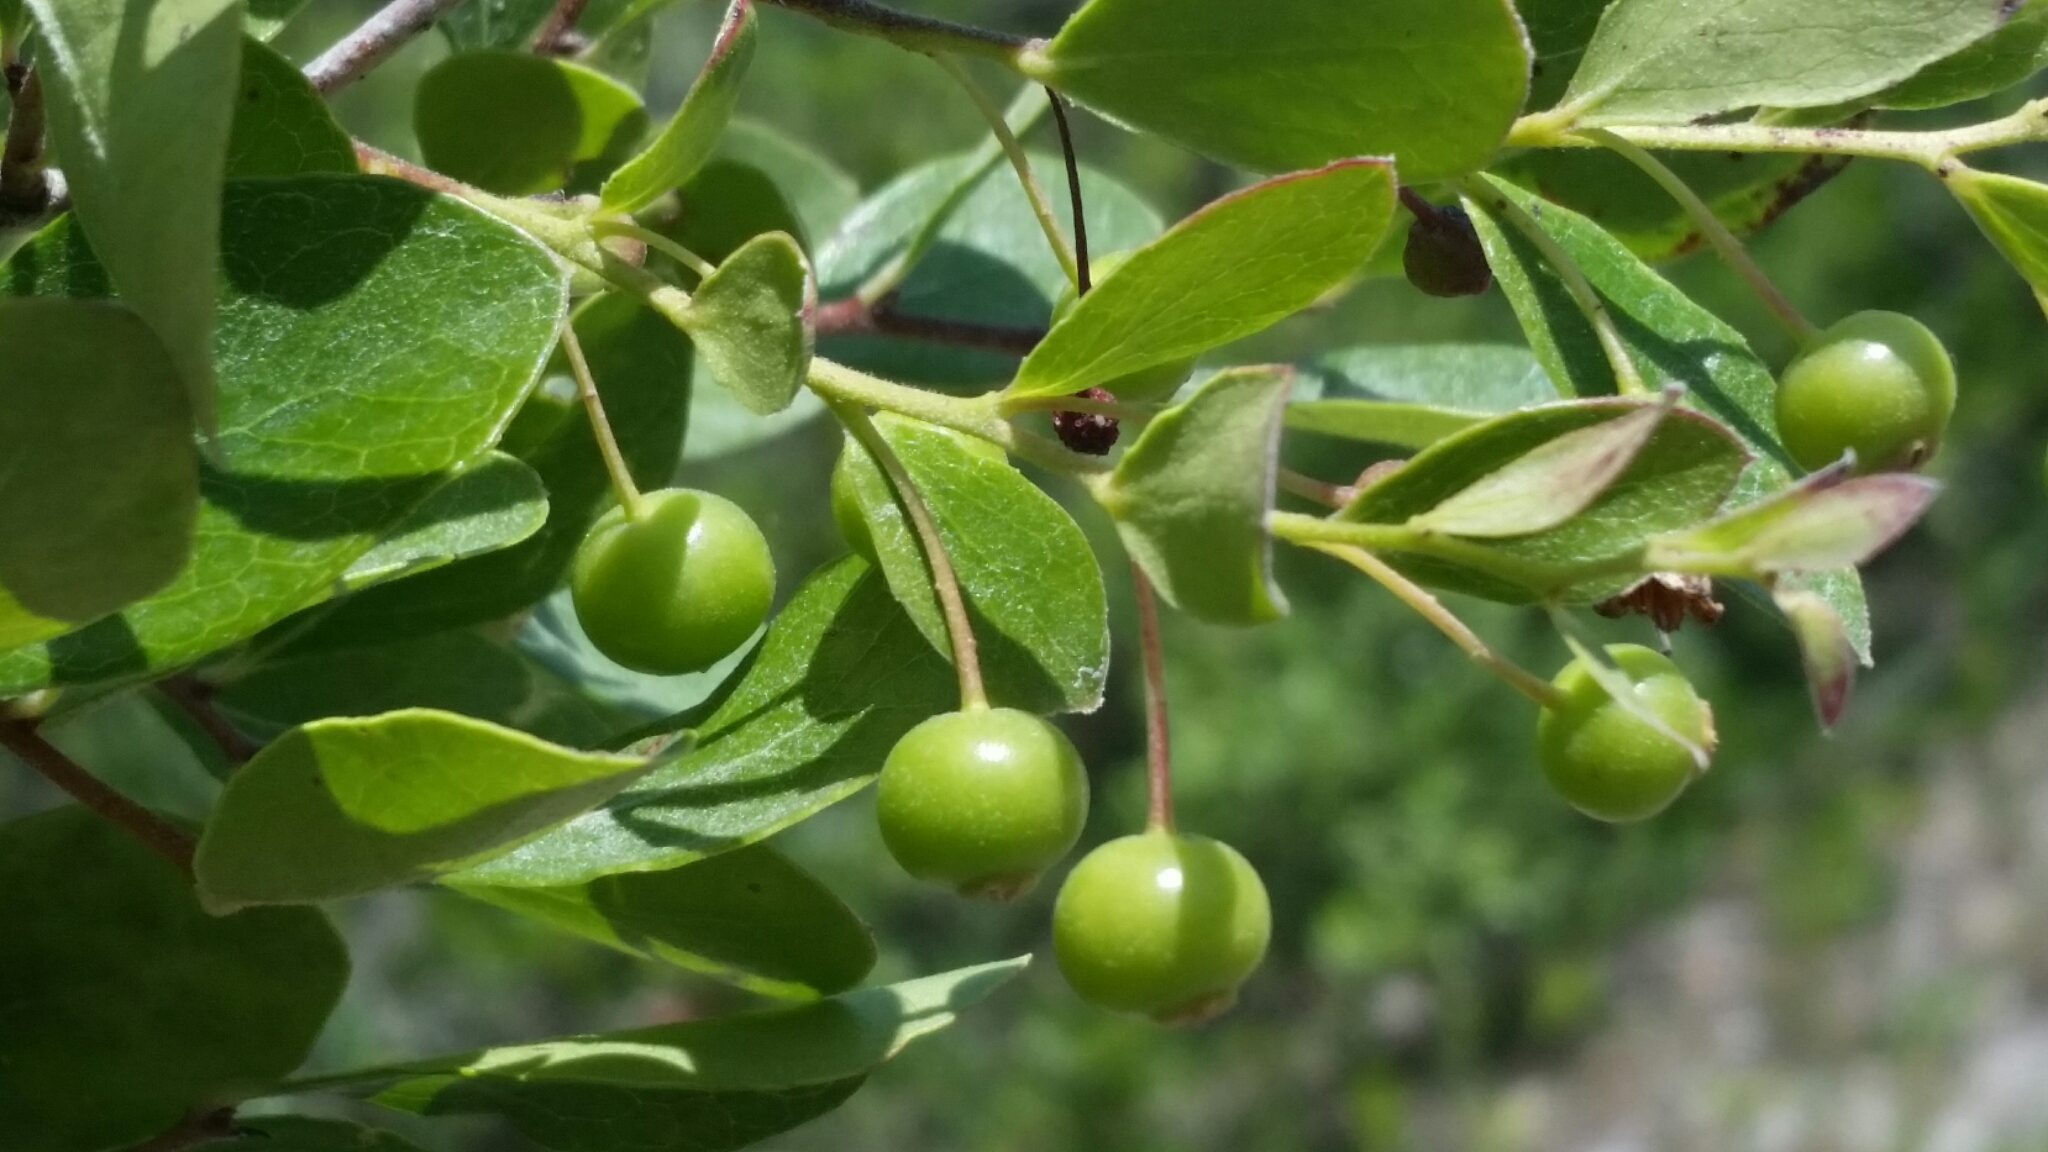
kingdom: Plantae
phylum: Tracheophyta
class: Magnoliopsida
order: Ericales
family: Ericaceae
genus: Vaccinium
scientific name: Vaccinium arboreum
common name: Farkleberry
